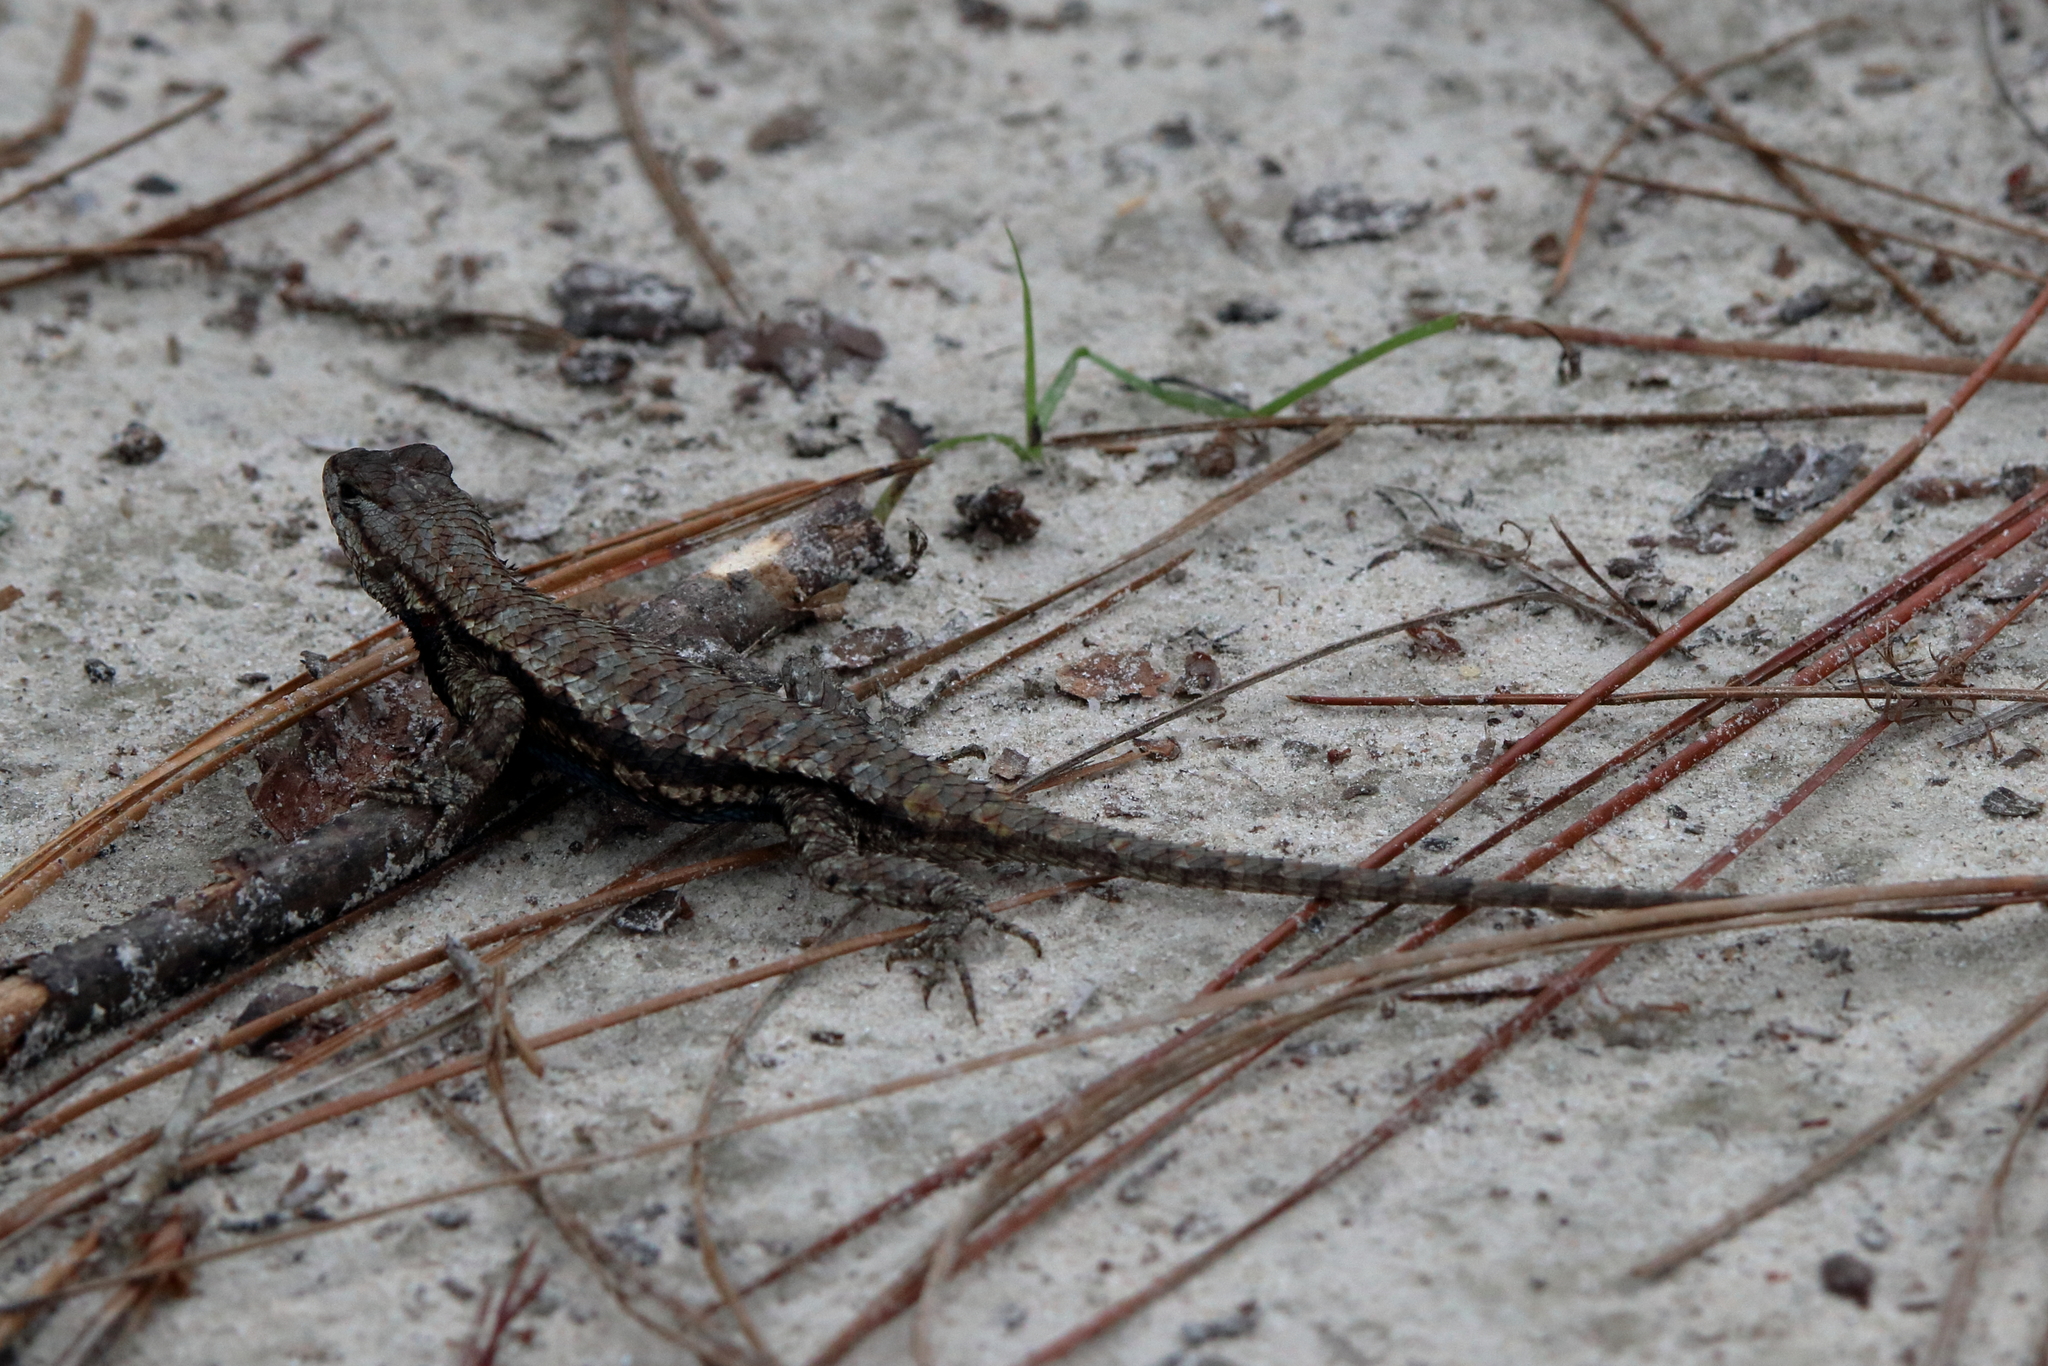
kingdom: Animalia
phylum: Chordata
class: Squamata
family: Phrynosomatidae
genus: Sceloporus
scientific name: Sceloporus undulatus
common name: Eastern fence lizard
